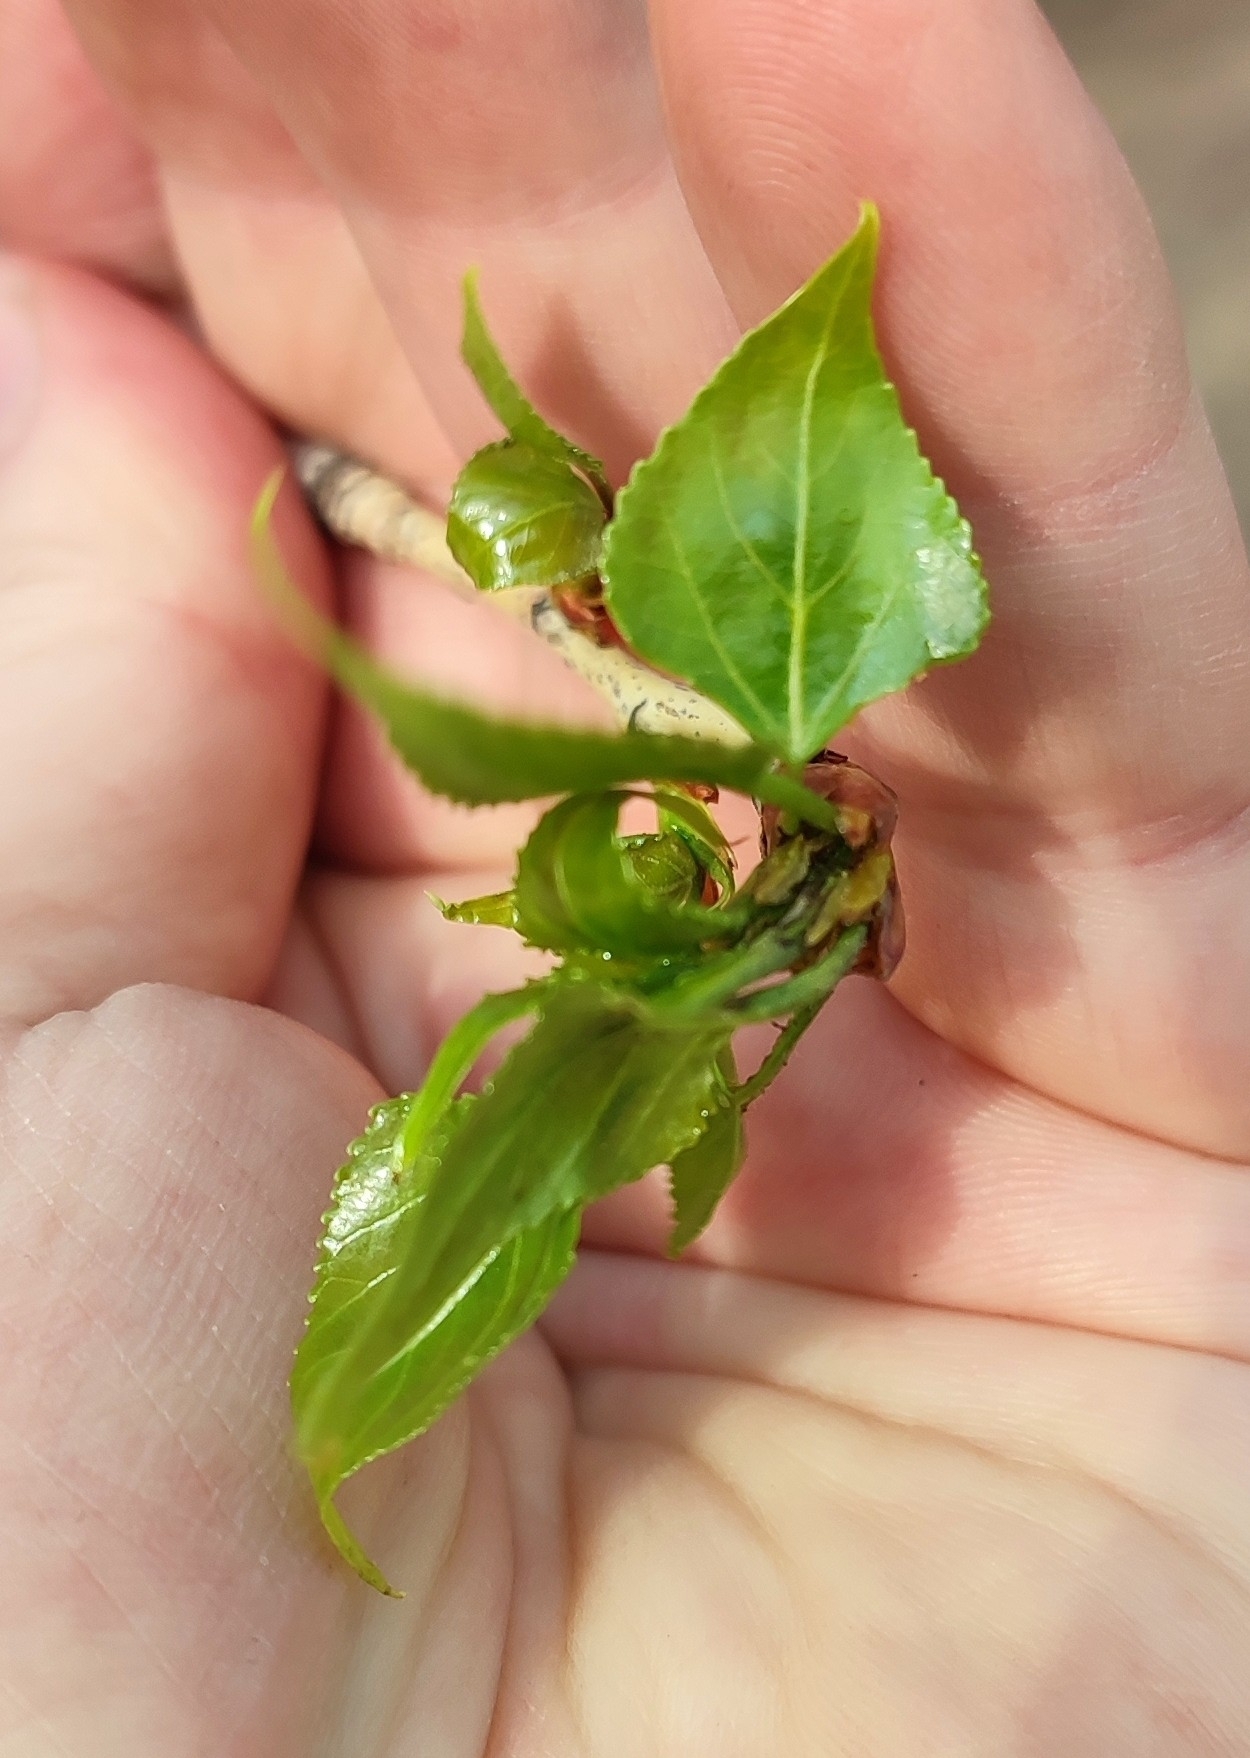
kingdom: Plantae
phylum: Tracheophyta
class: Magnoliopsida
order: Malpighiales
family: Salicaceae
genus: Populus
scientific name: Populus nigra
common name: Black poplar
